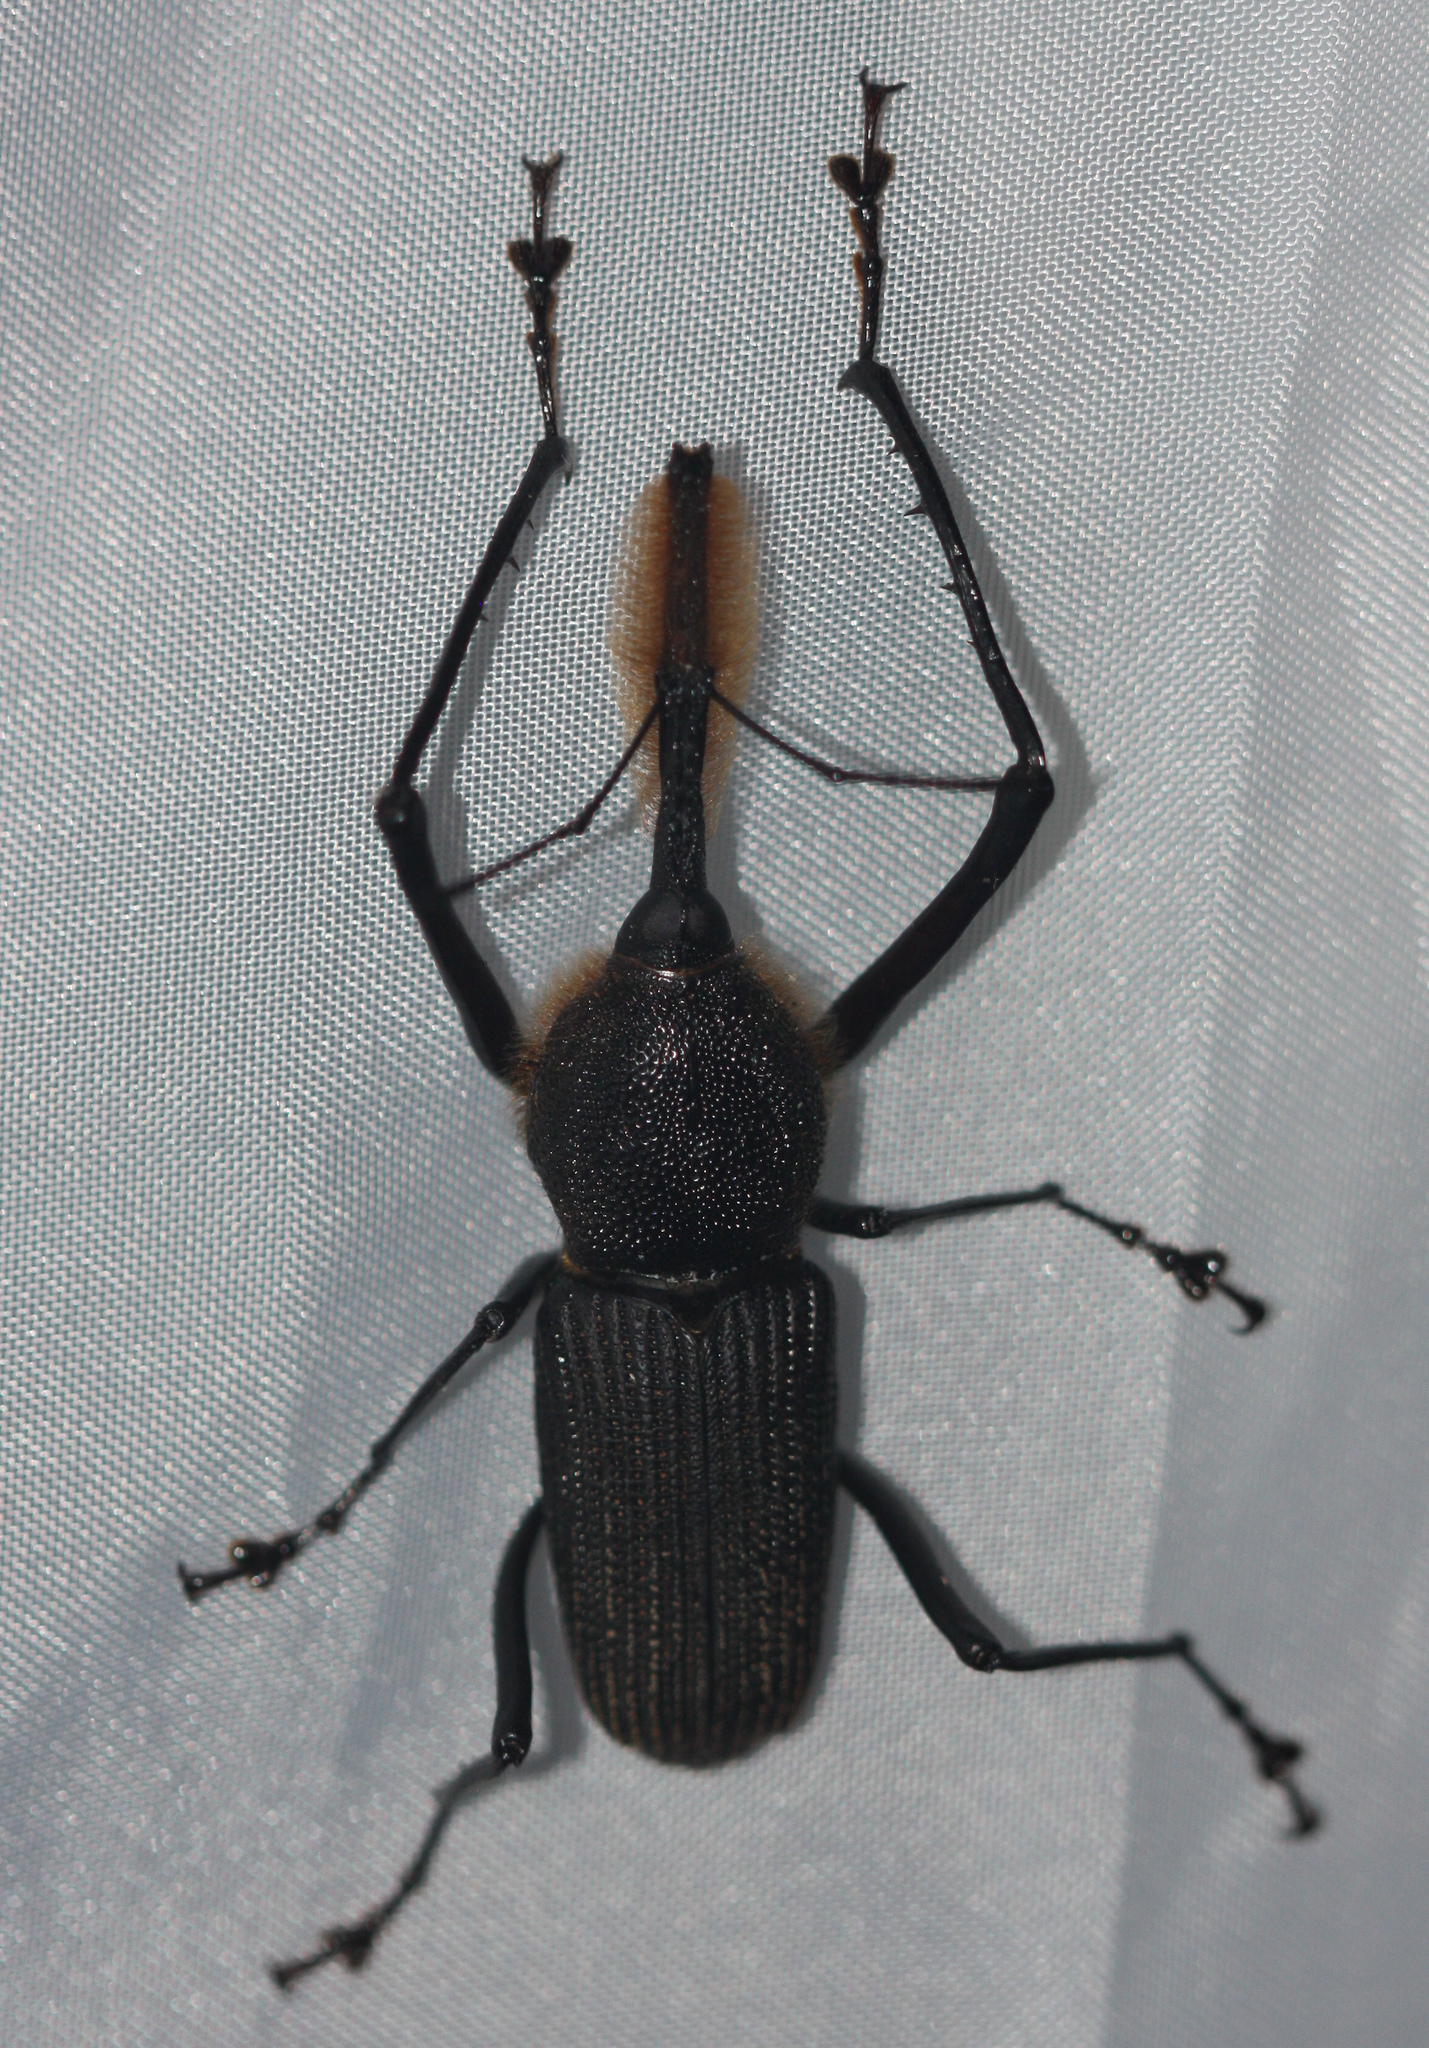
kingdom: Animalia
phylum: Arthropoda
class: Insecta
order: Coleoptera
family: Dryophthoridae
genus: Rhinostomus
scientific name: Rhinostomus barbirostris
